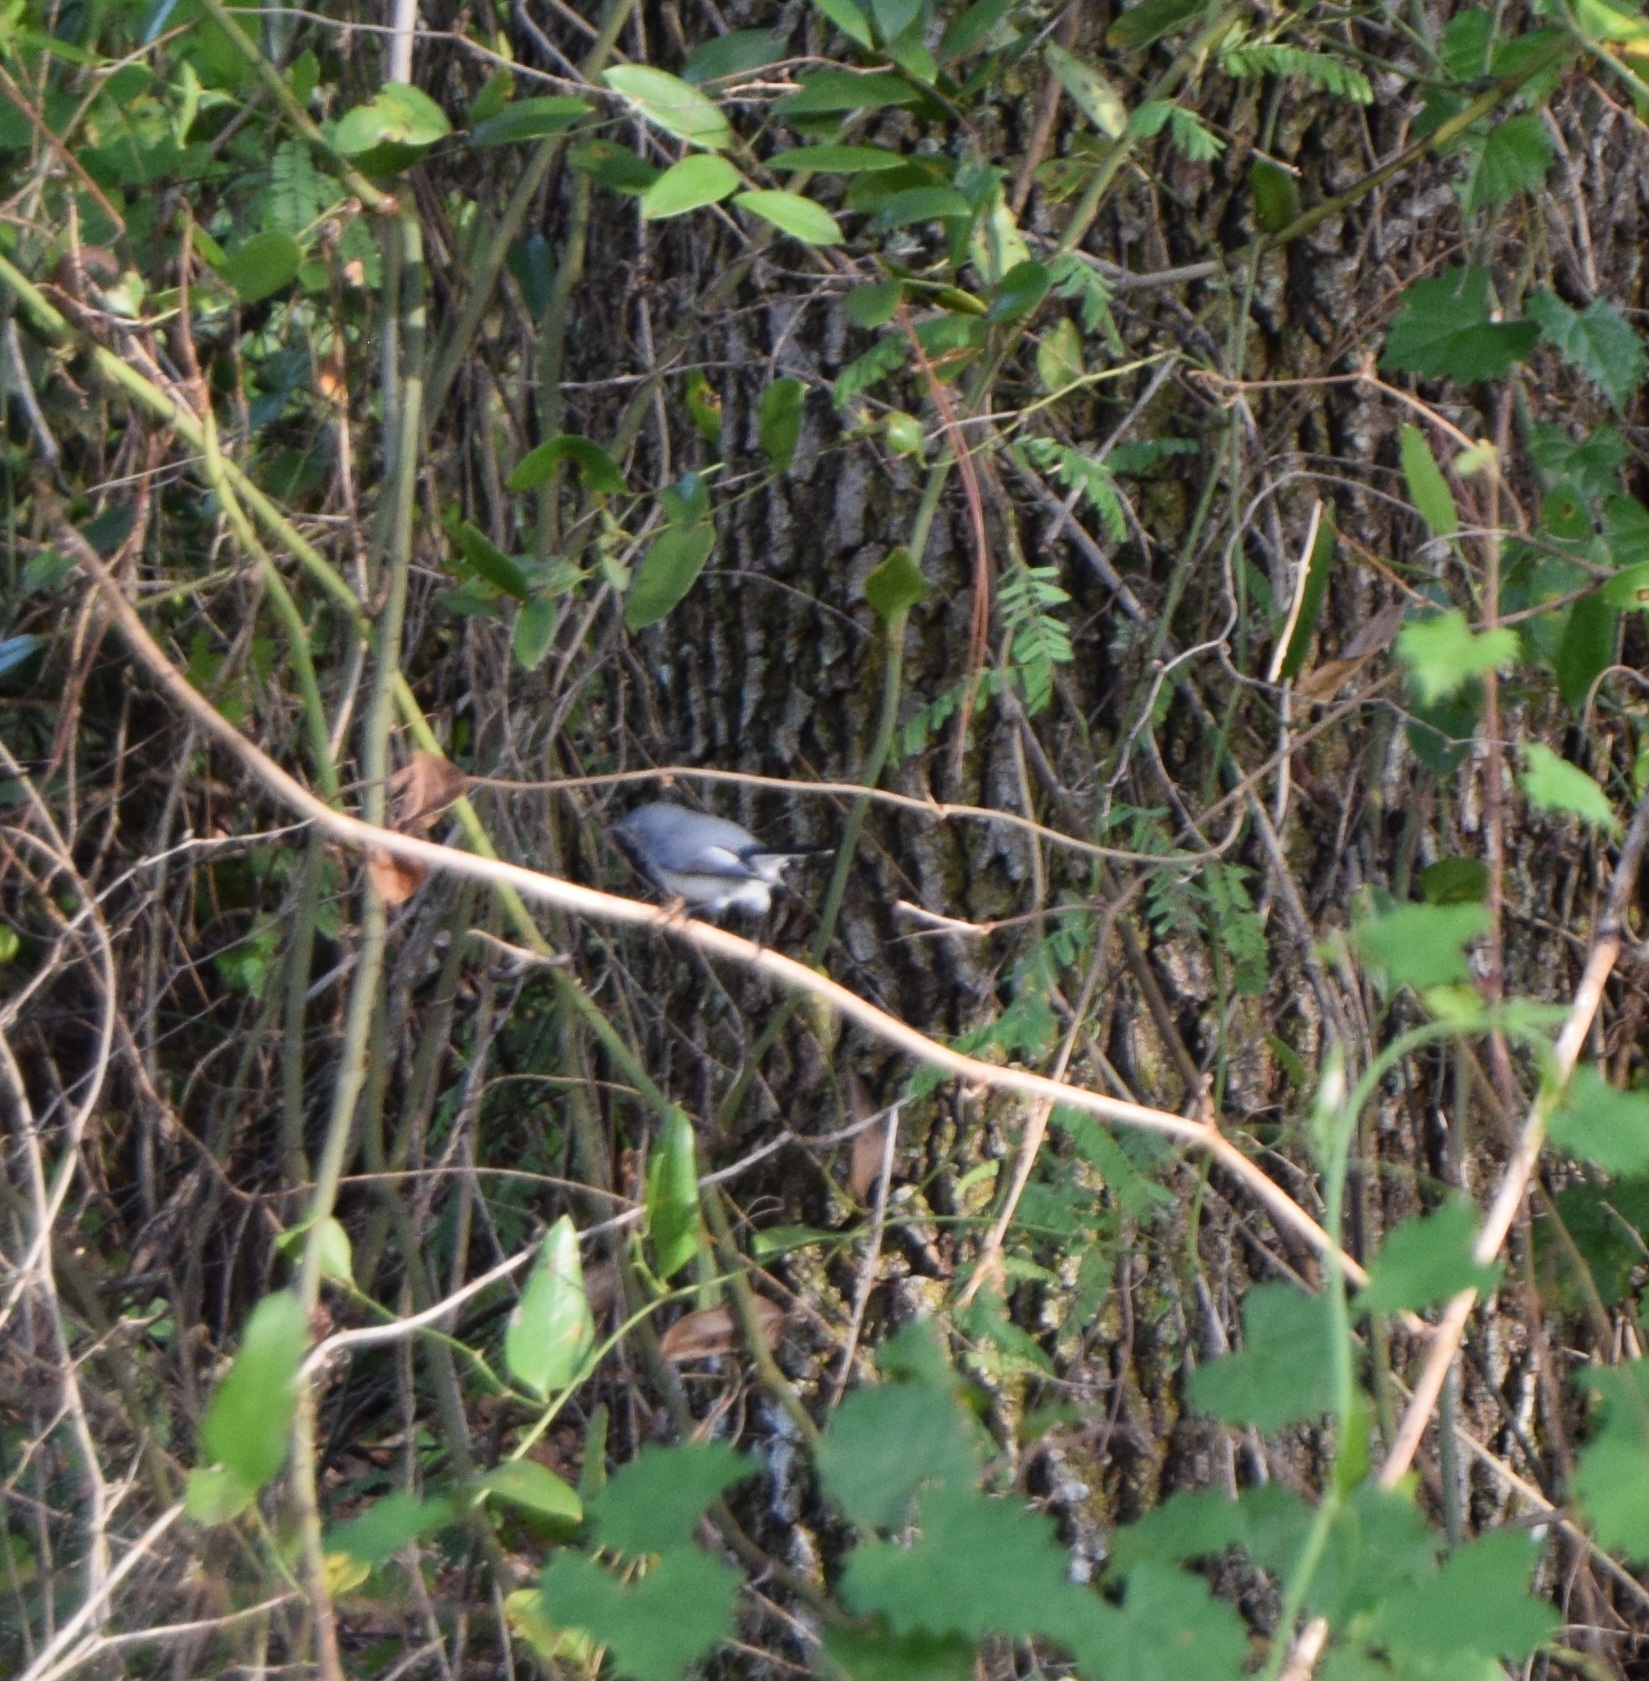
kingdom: Animalia
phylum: Chordata
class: Aves
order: Passeriformes
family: Polioptilidae
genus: Polioptila
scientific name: Polioptila caerulea
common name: Blue-gray gnatcatcher
